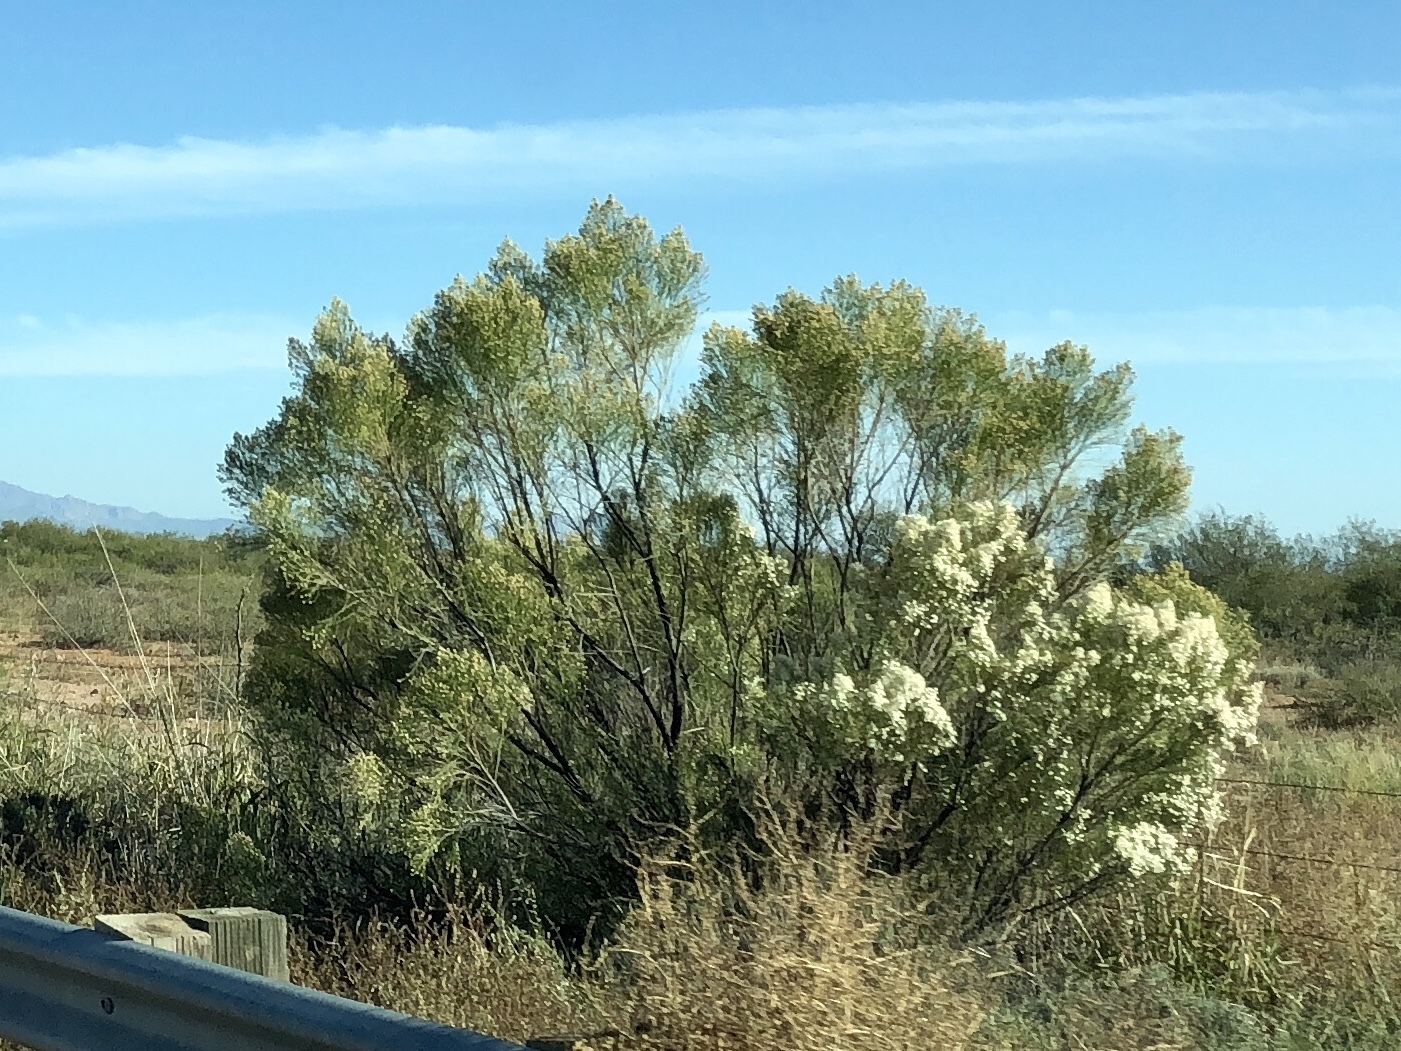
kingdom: Plantae
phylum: Tracheophyta
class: Magnoliopsida
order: Asterales
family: Asteraceae
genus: Baccharis
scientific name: Baccharis sarothroides
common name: Desert-broom
